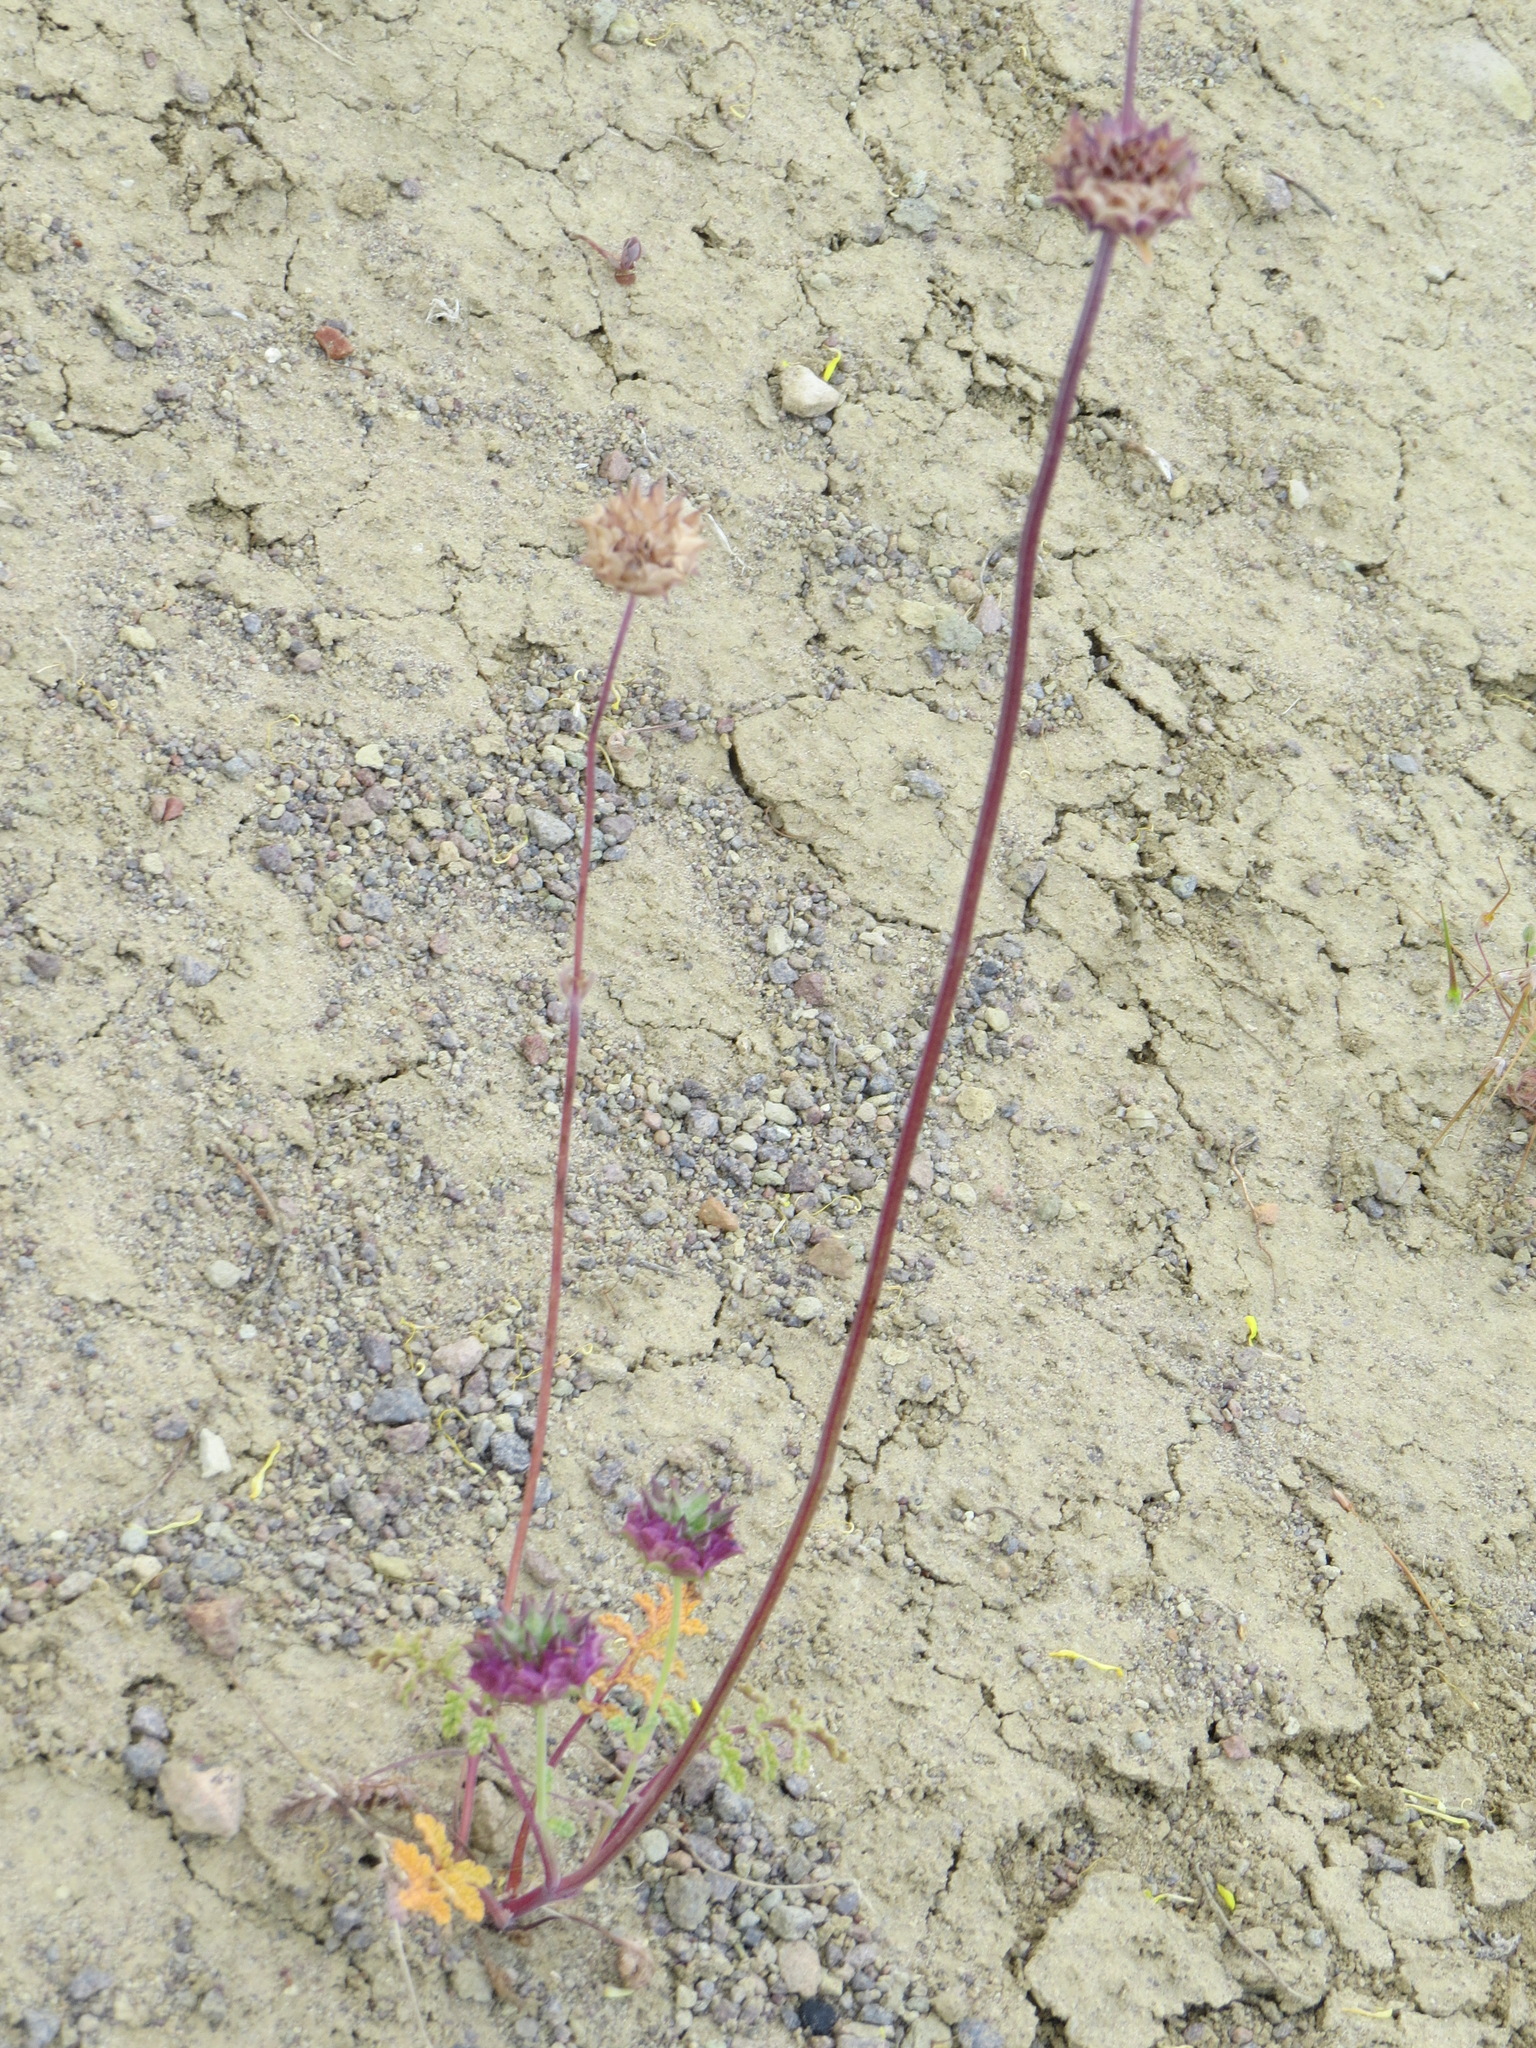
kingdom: Plantae
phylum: Tracheophyta
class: Magnoliopsida
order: Lamiales
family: Lamiaceae
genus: Salvia
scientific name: Salvia columbariae
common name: Chia
